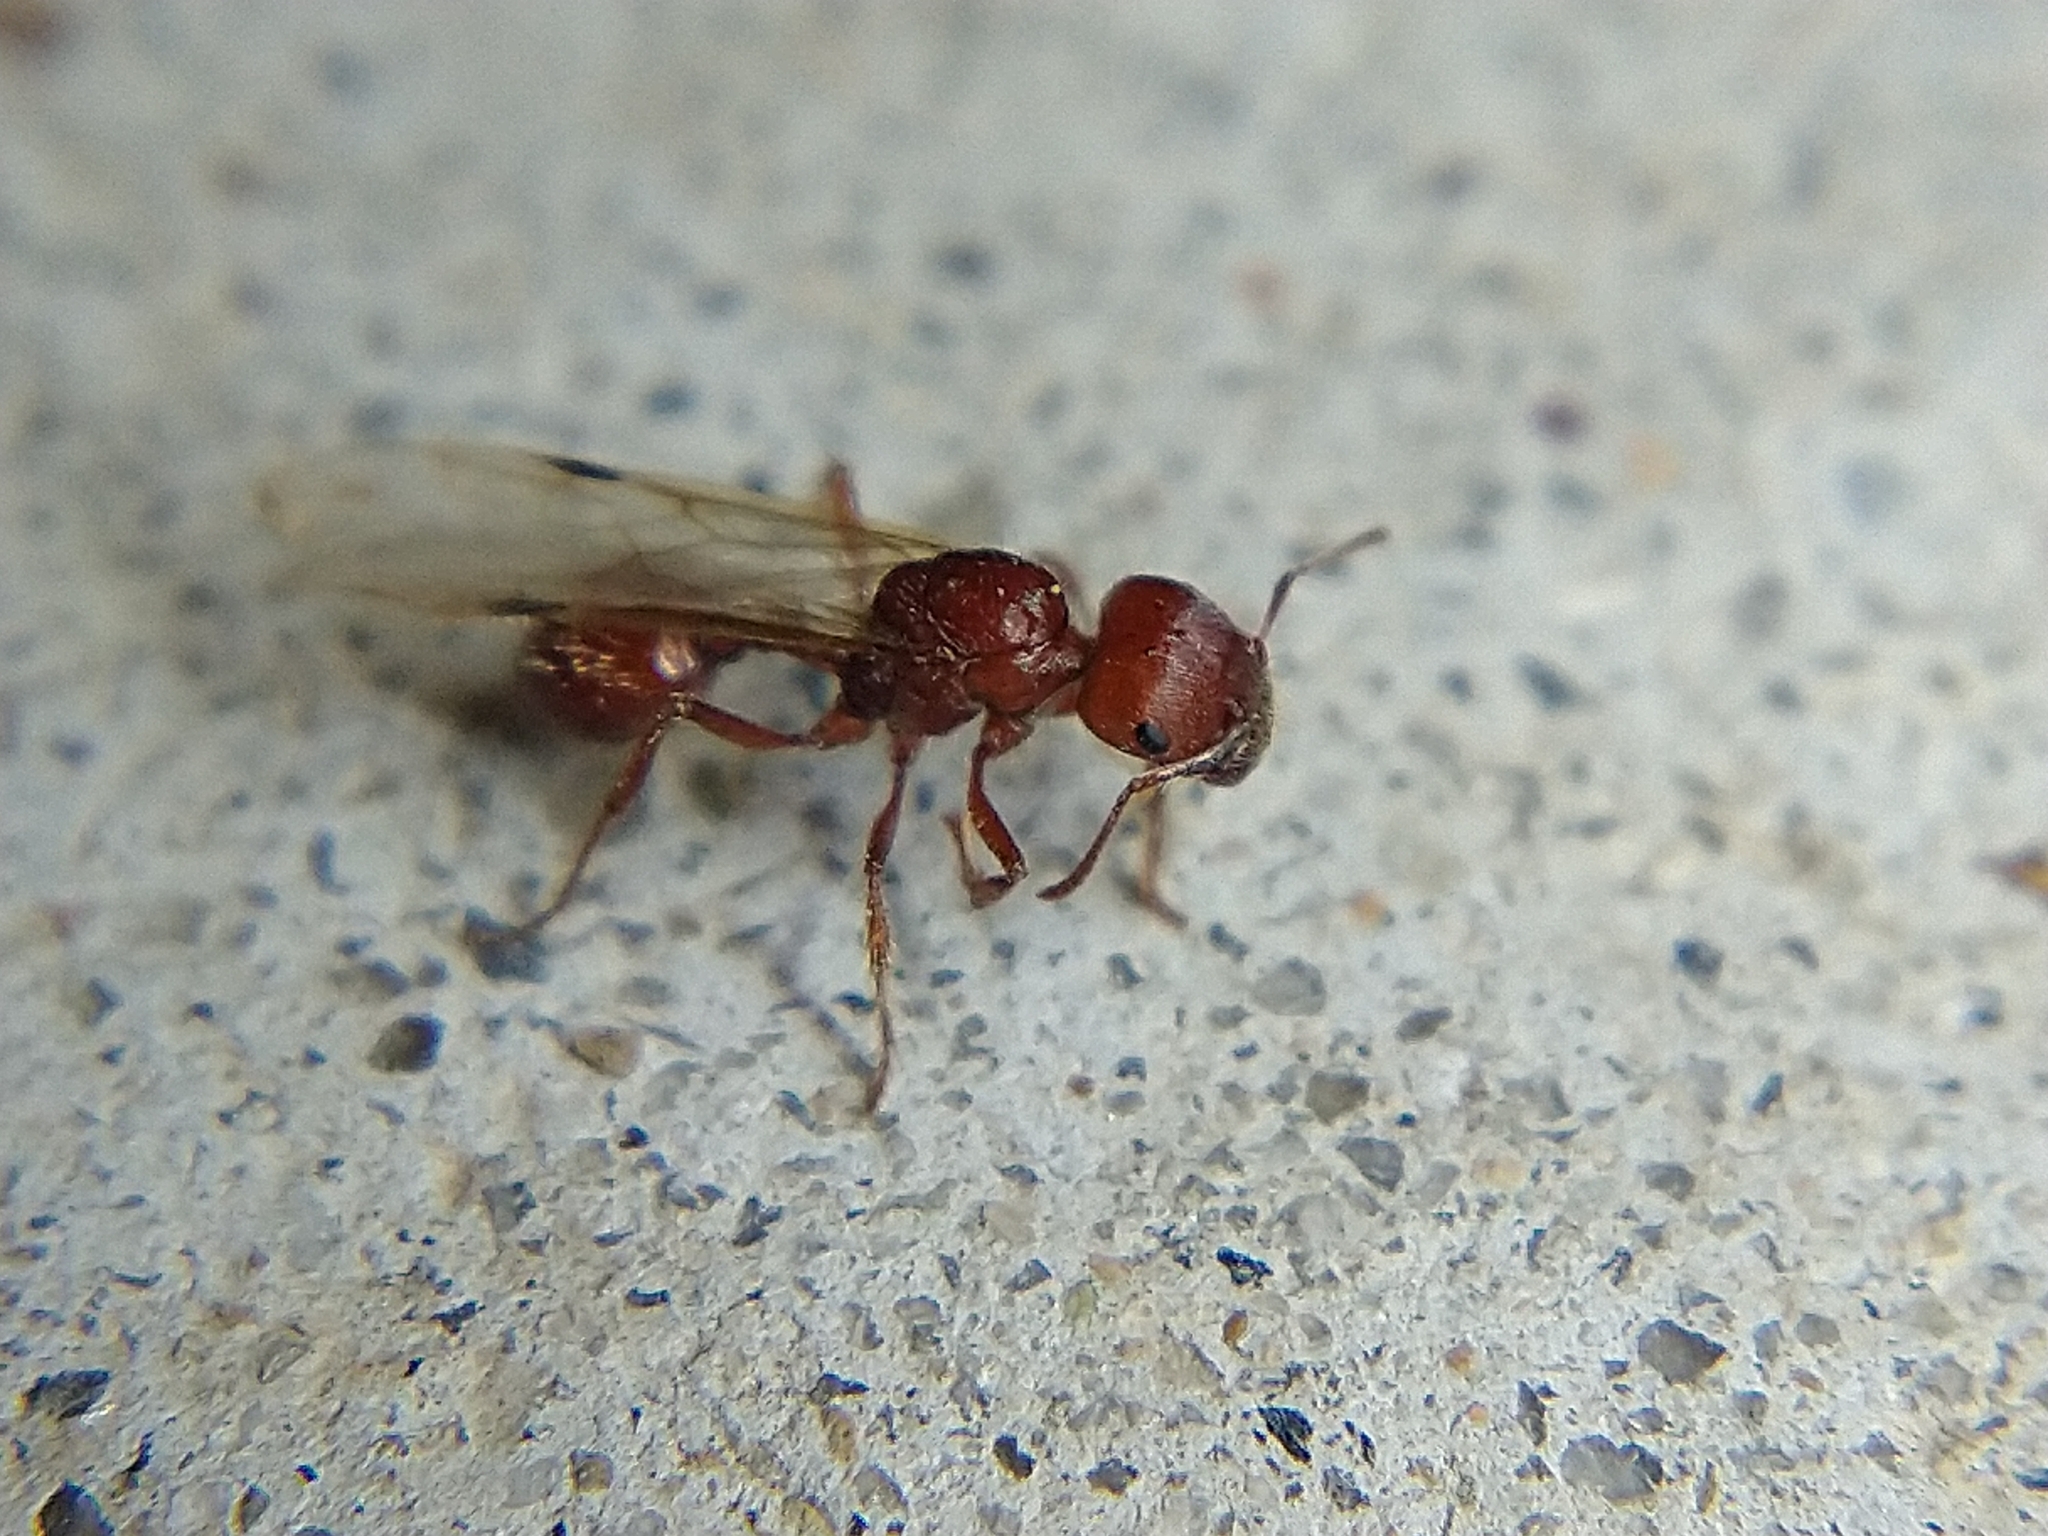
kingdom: Animalia
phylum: Arthropoda
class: Insecta
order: Hymenoptera
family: Formicidae
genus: Pogonomyrmex
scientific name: Pogonomyrmex
